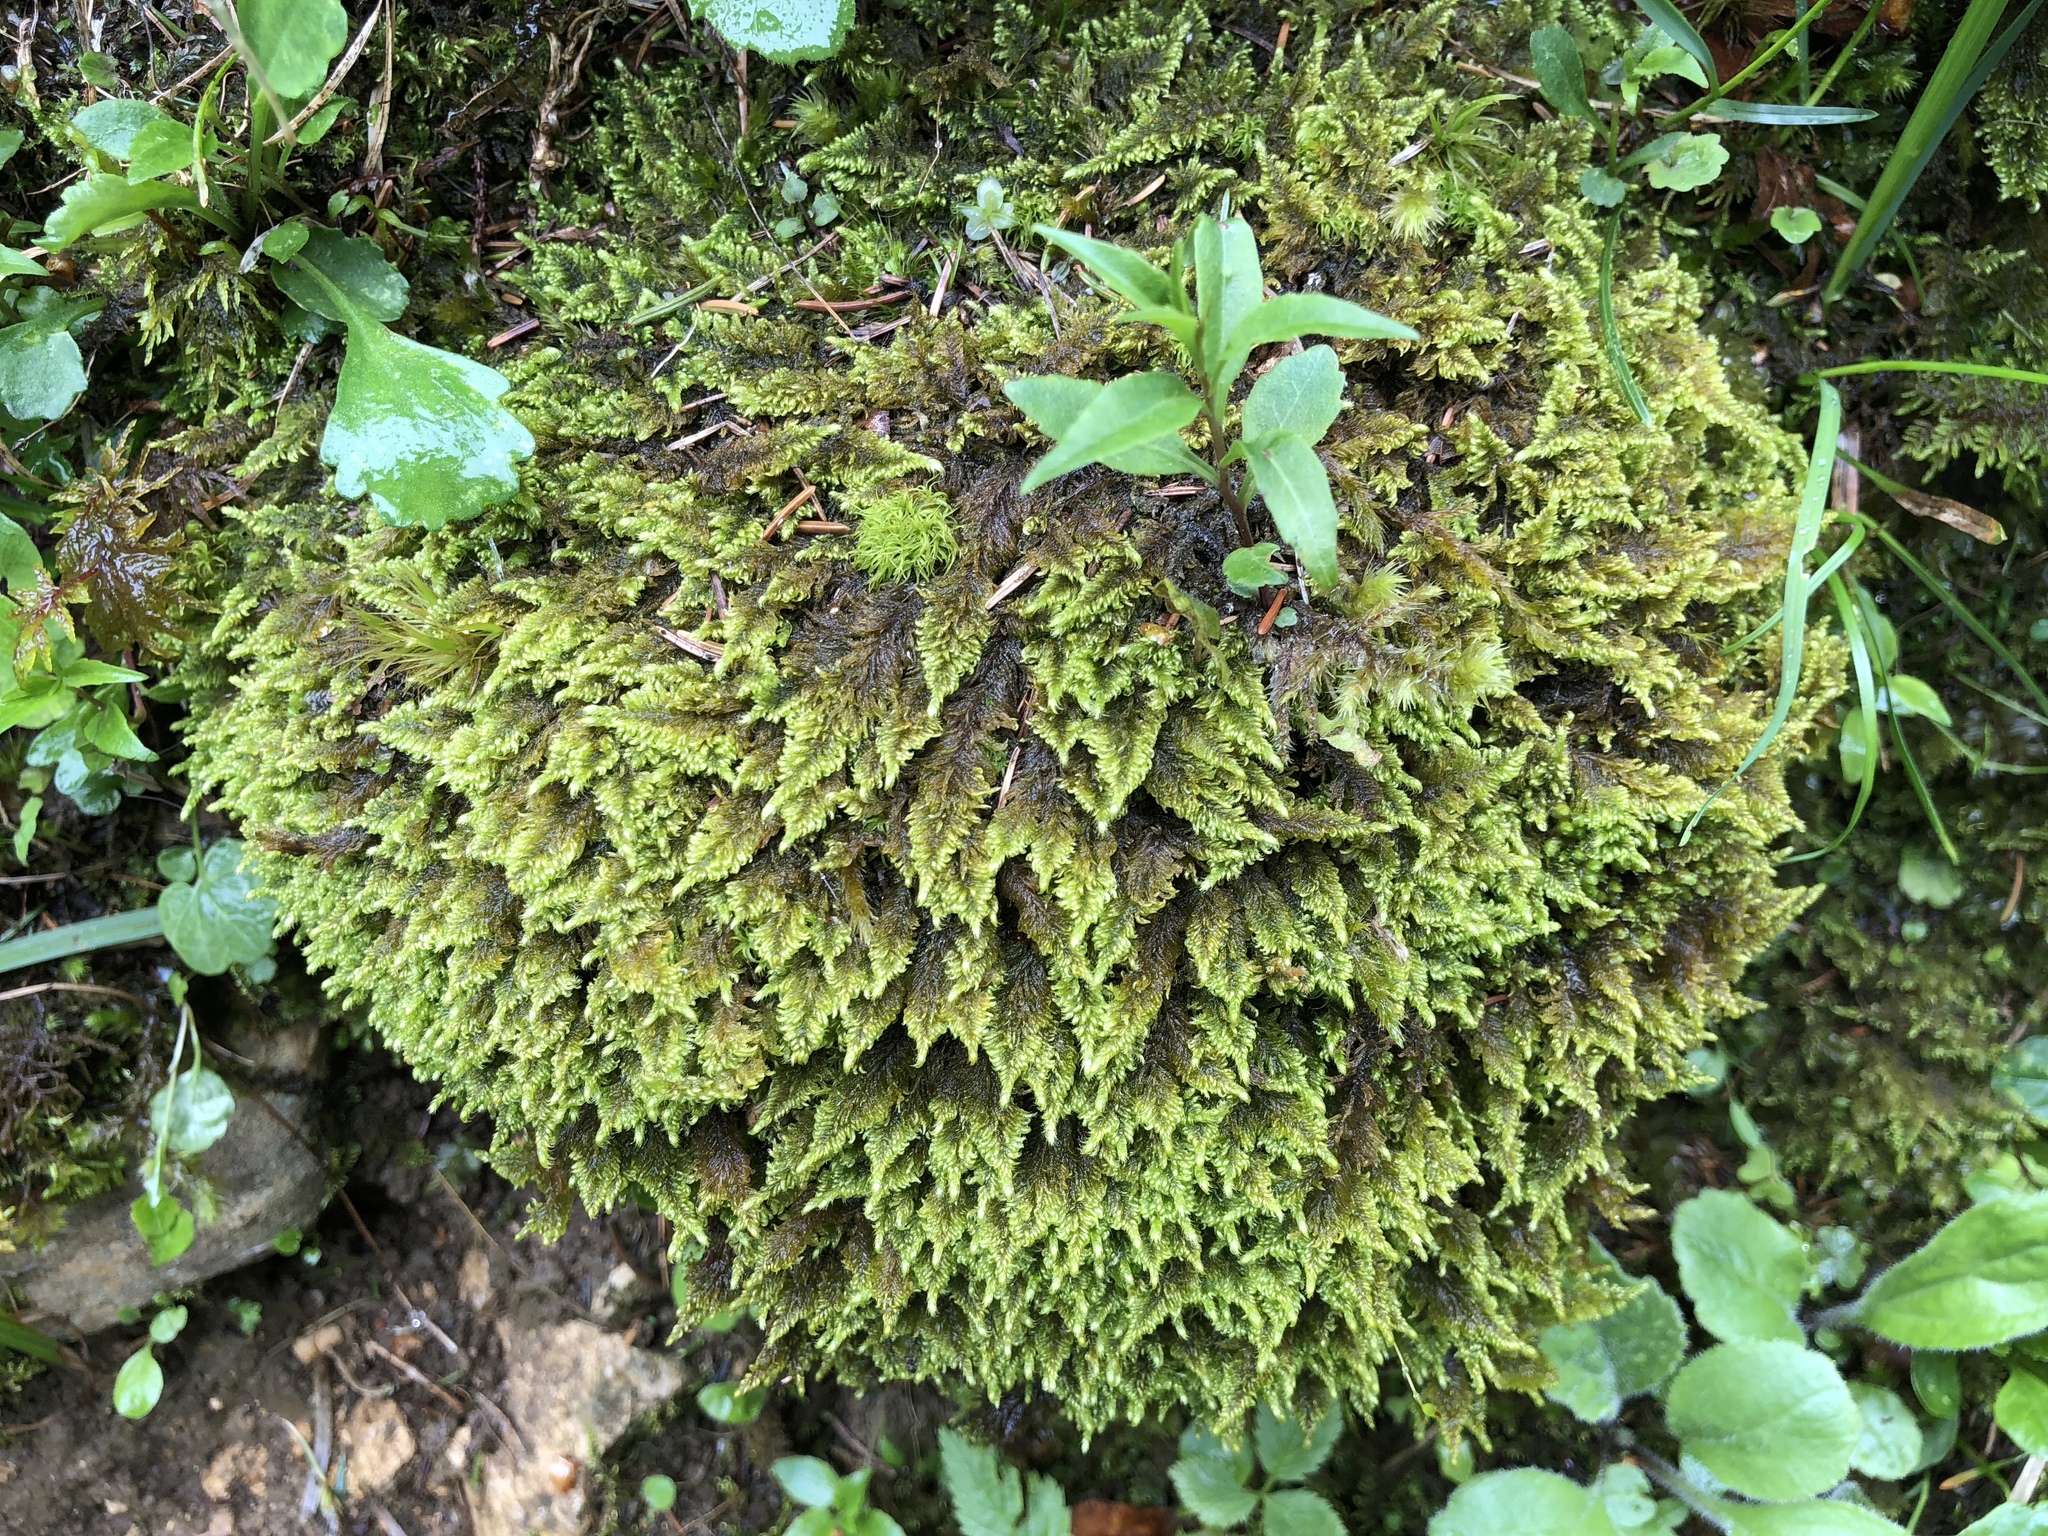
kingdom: Plantae
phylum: Bryophyta
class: Bryopsida
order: Hypnales
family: Myuriaceae
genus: Ctenidium
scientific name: Ctenidium molluscum
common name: Chalk comb-moss
